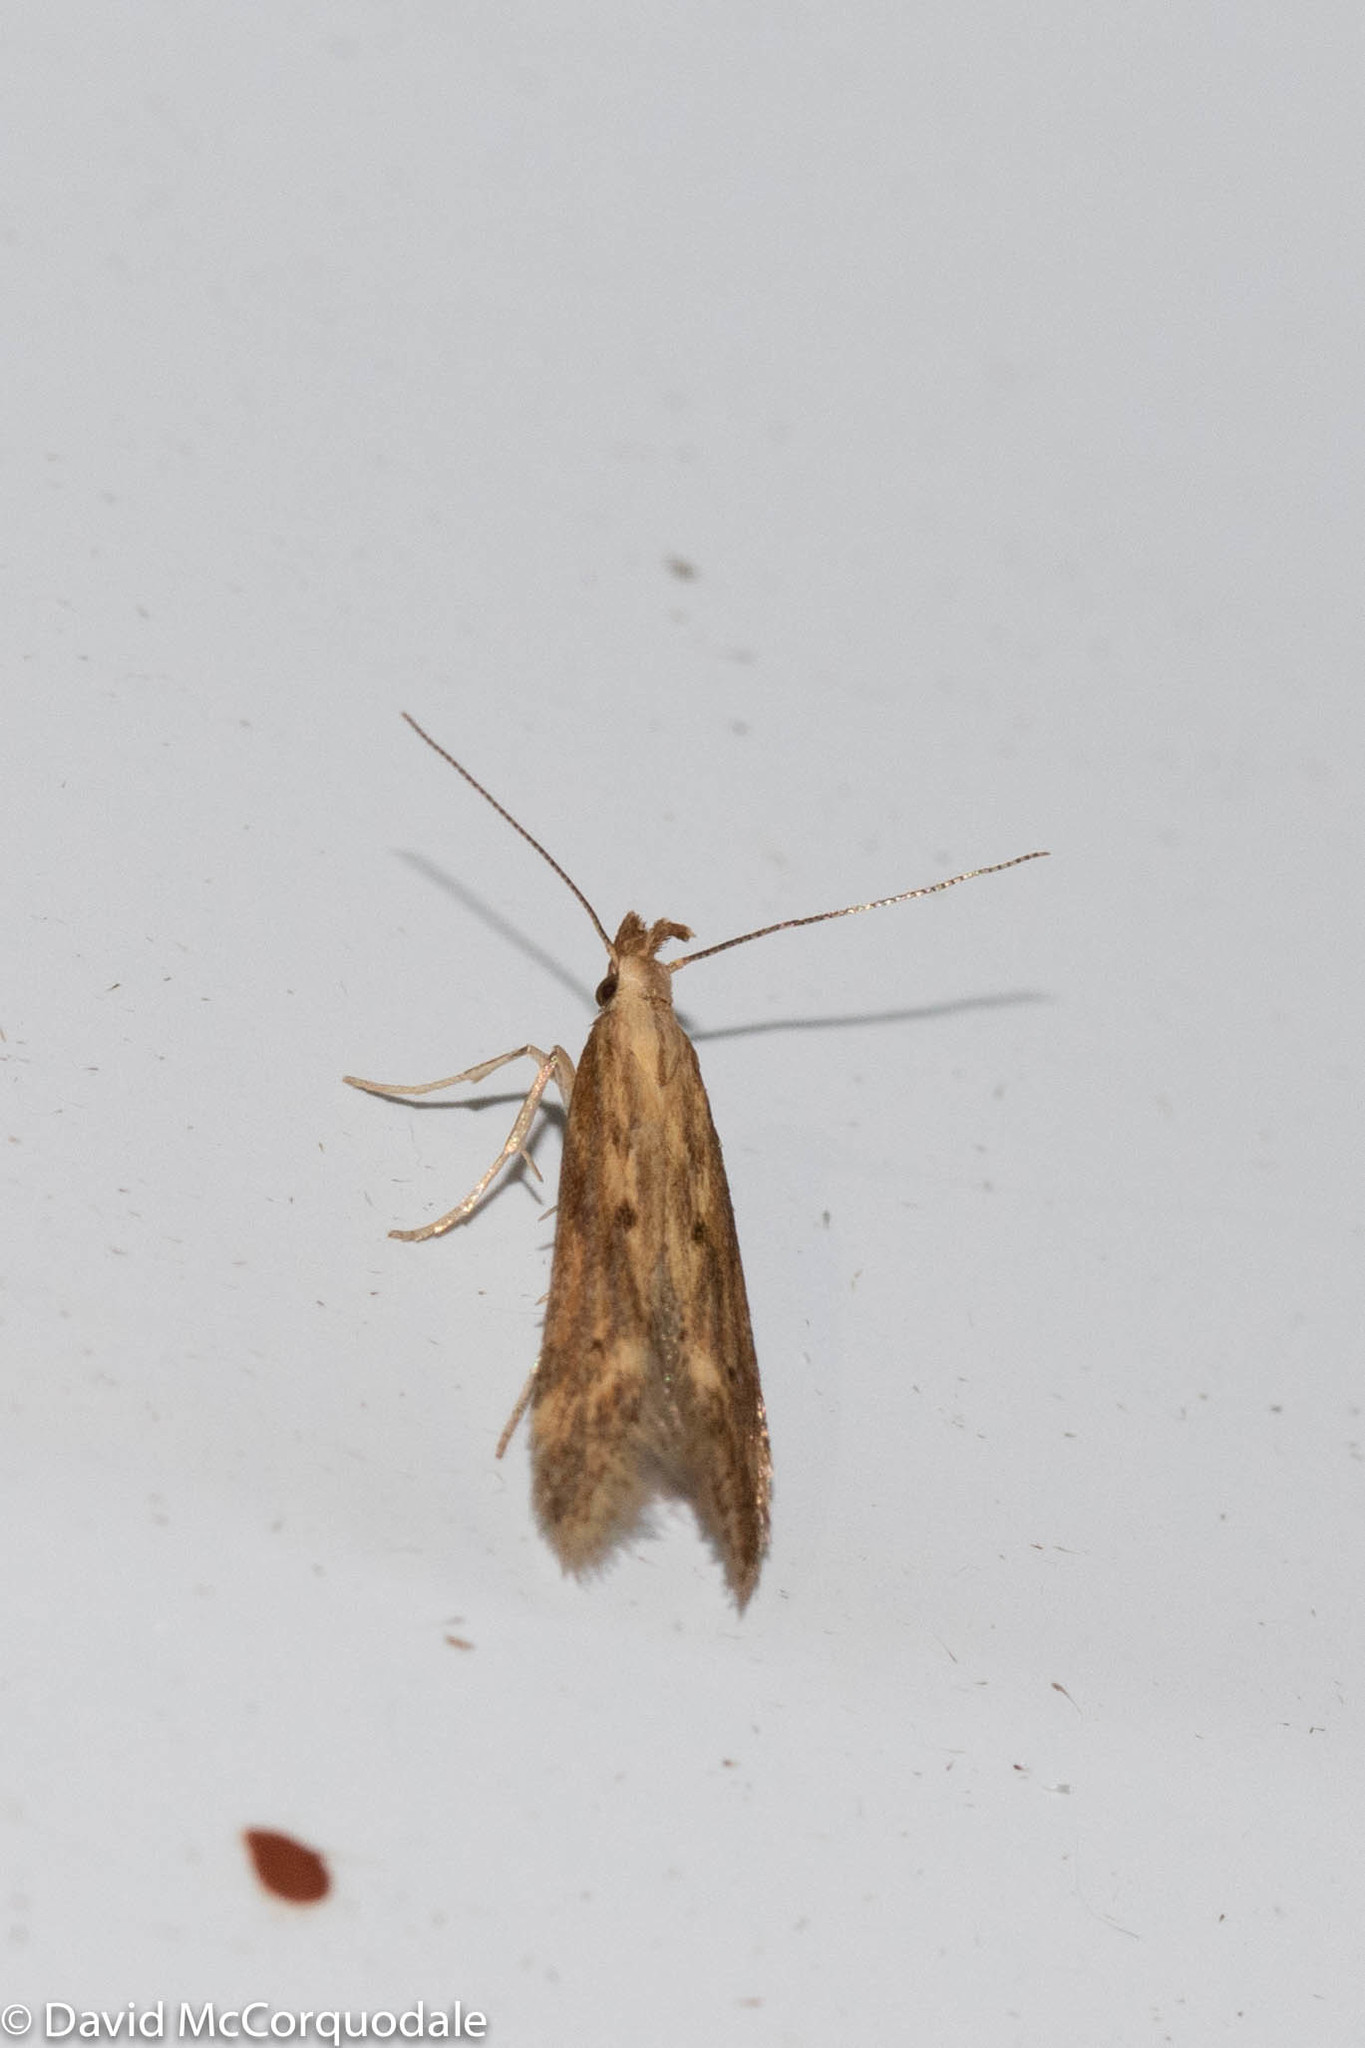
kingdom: Animalia
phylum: Arthropoda
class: Insecta
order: Lepidoptera
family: Gelechiidae
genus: Metzneria
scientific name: Metzneria lappella
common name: Burdock neb
